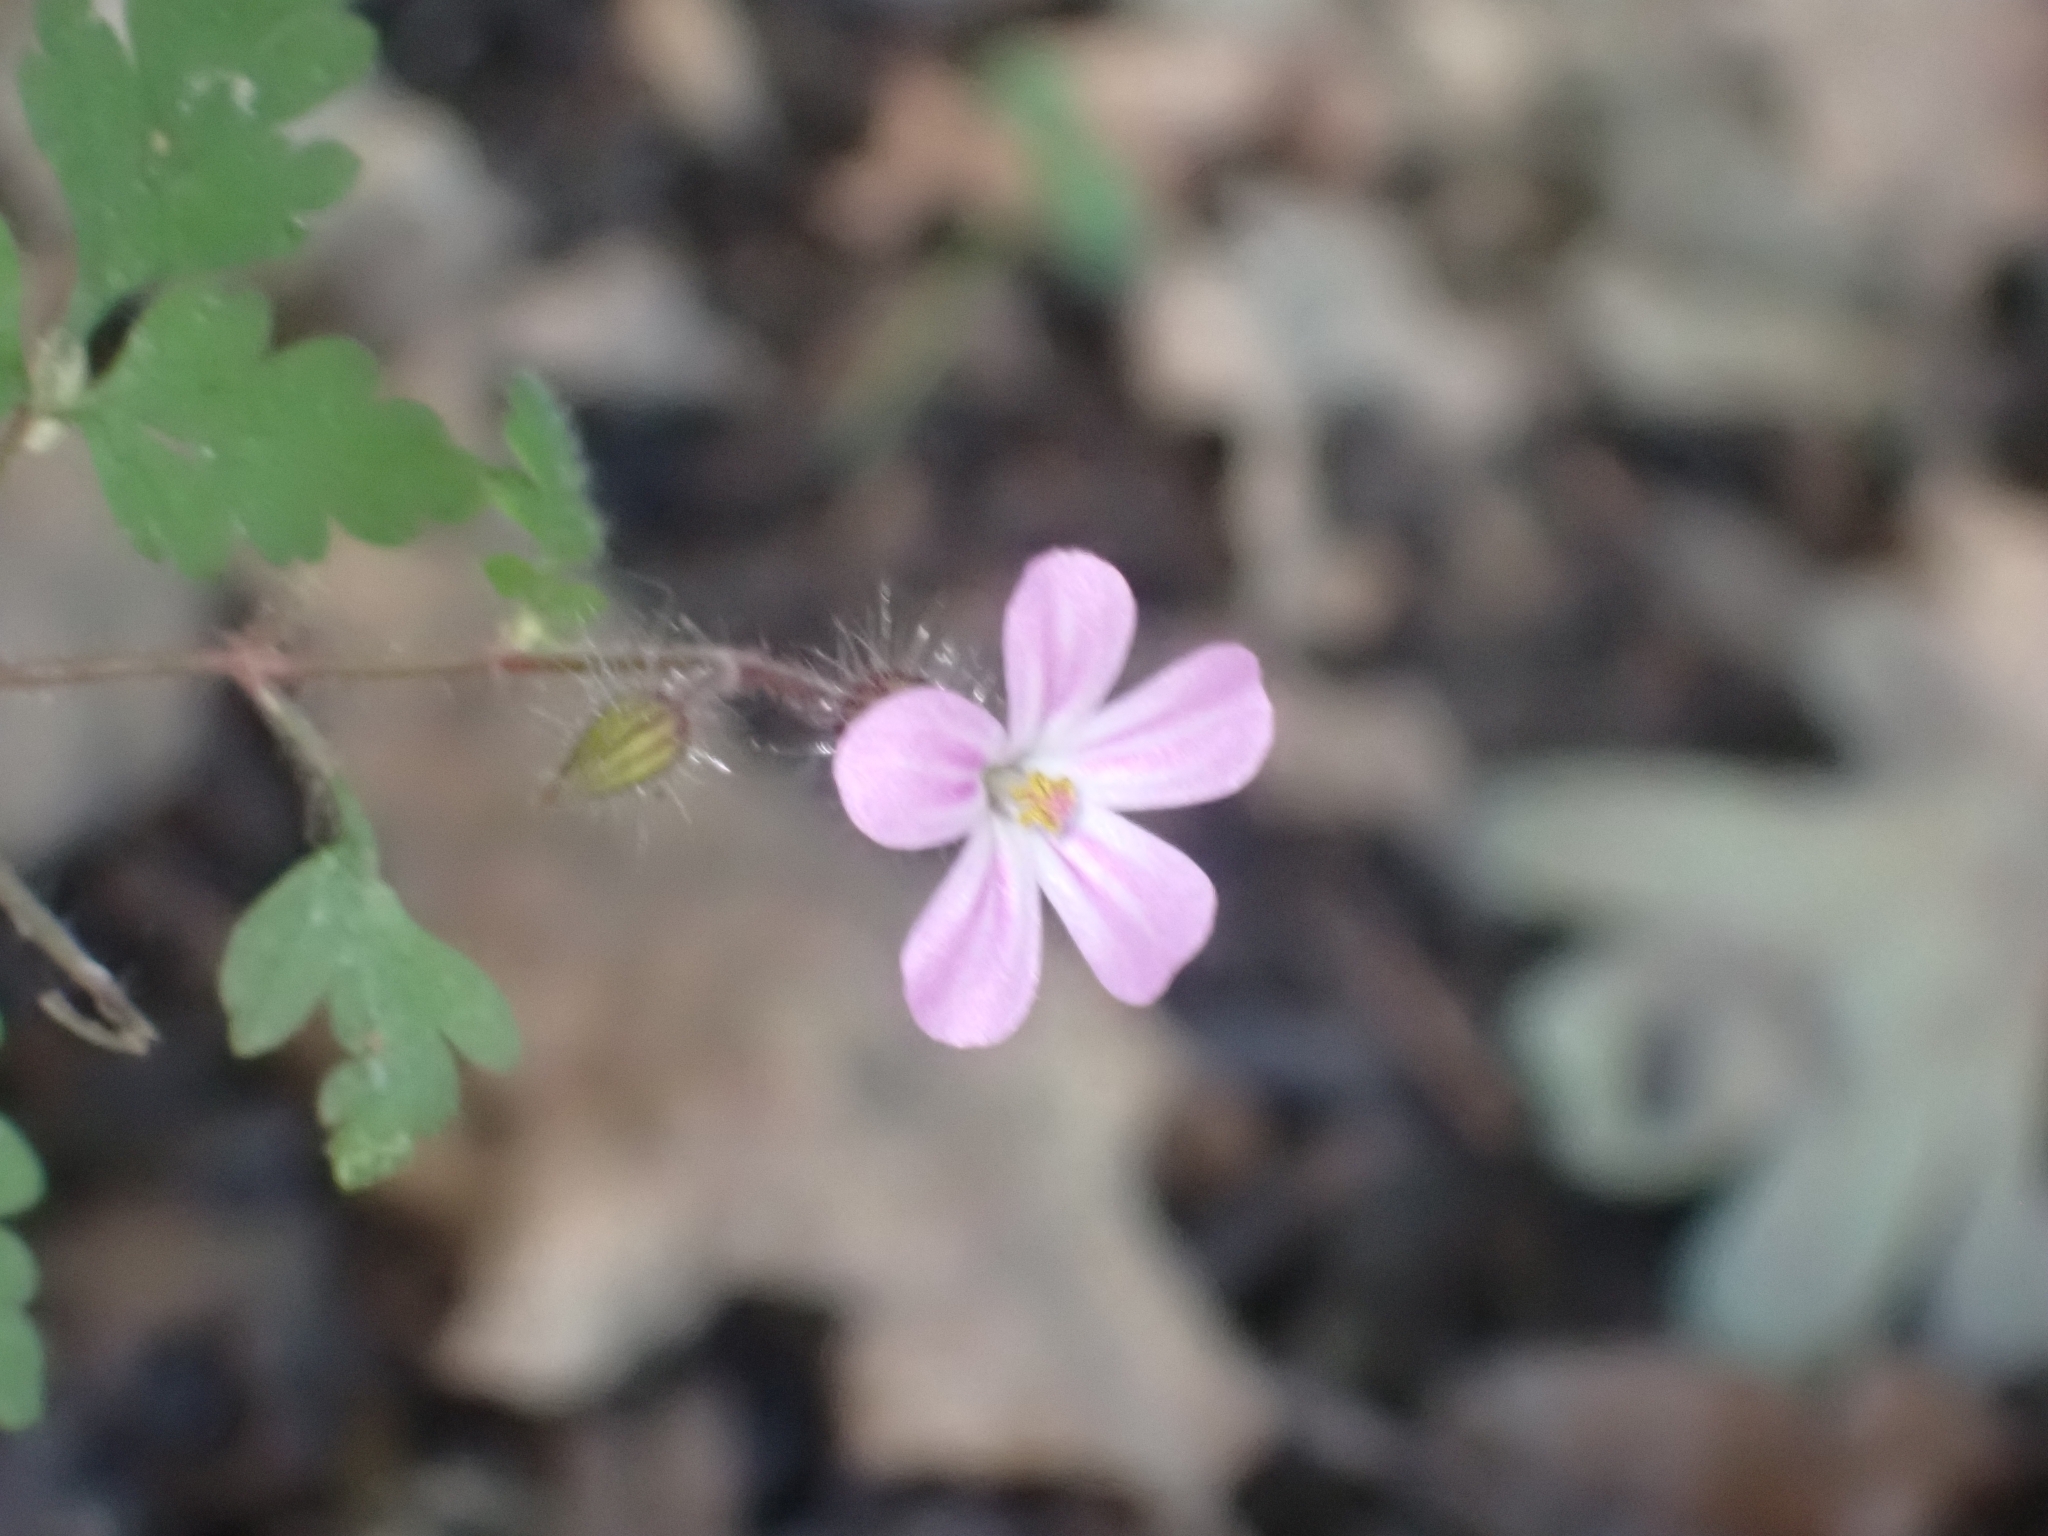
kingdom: Plantae
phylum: Tracheophyta
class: Magnoliopsida
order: Geraniales
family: Geraniaceae
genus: Geranium
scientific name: Geranium robertianum
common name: Herb-robert
